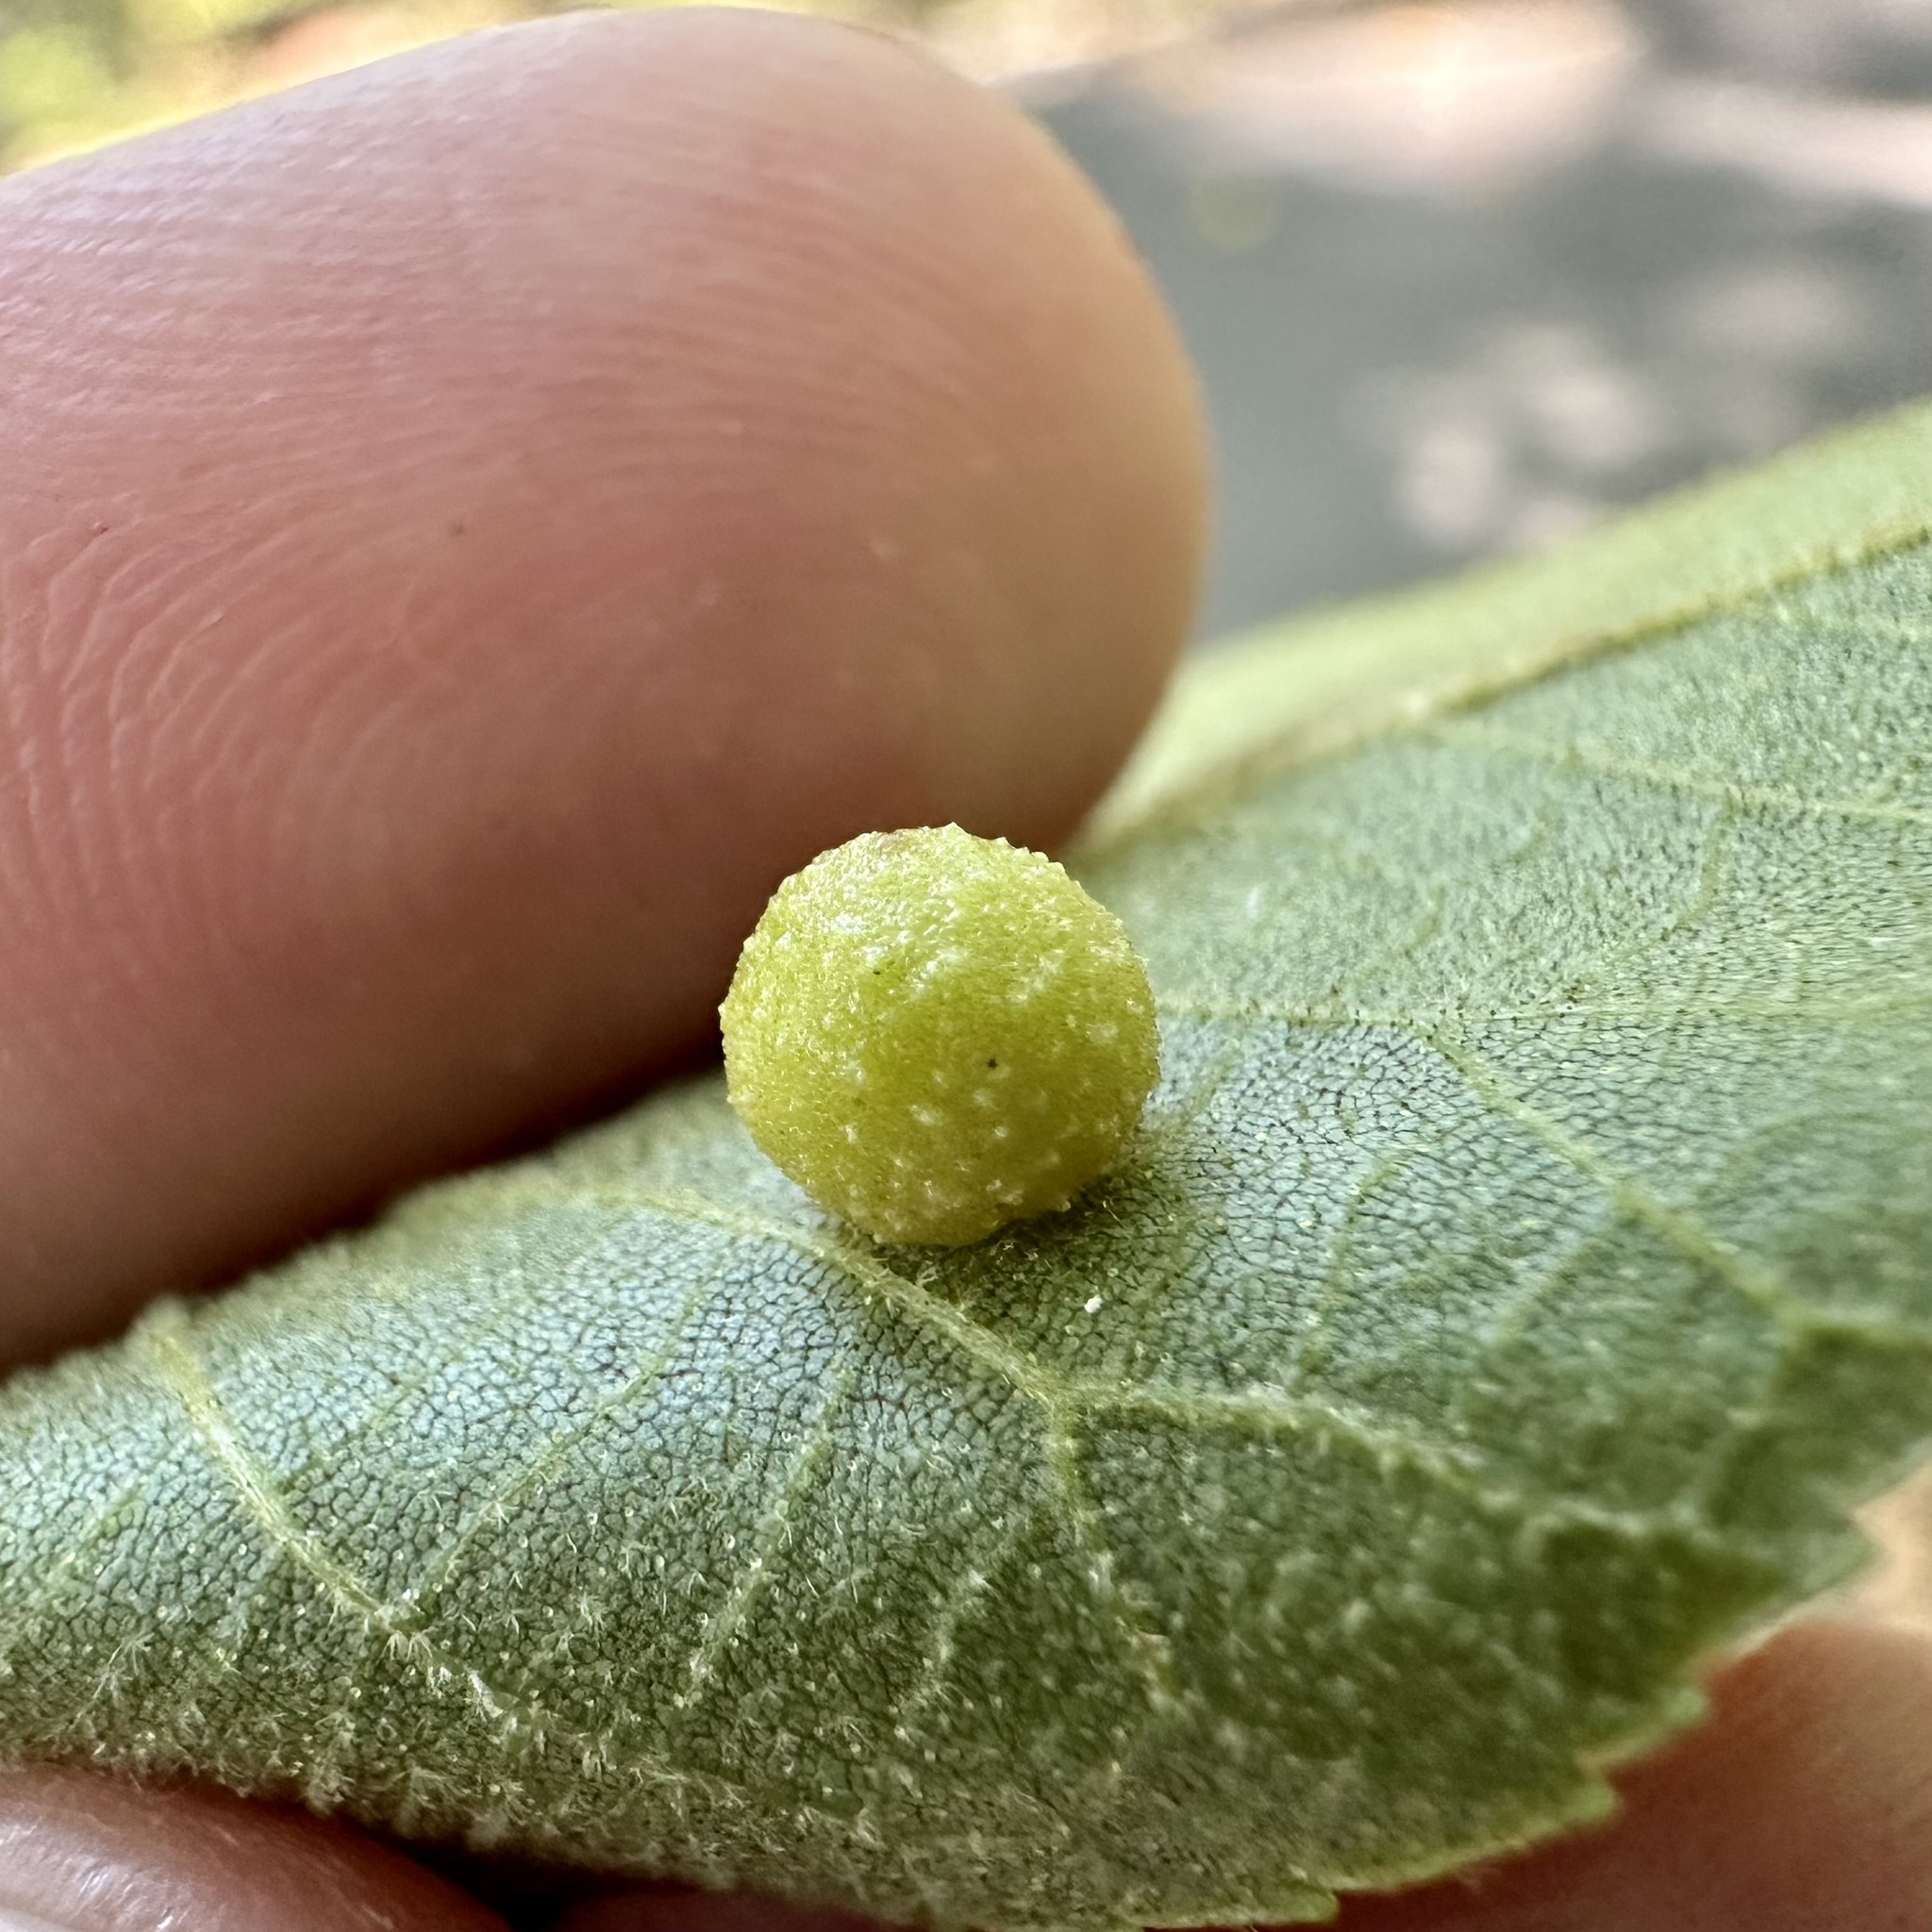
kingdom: Animalia
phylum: Arthropoda
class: Insecta
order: Diptera
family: Cecidomyiidae
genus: Caryomyia
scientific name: Caryomyia tuberculata
